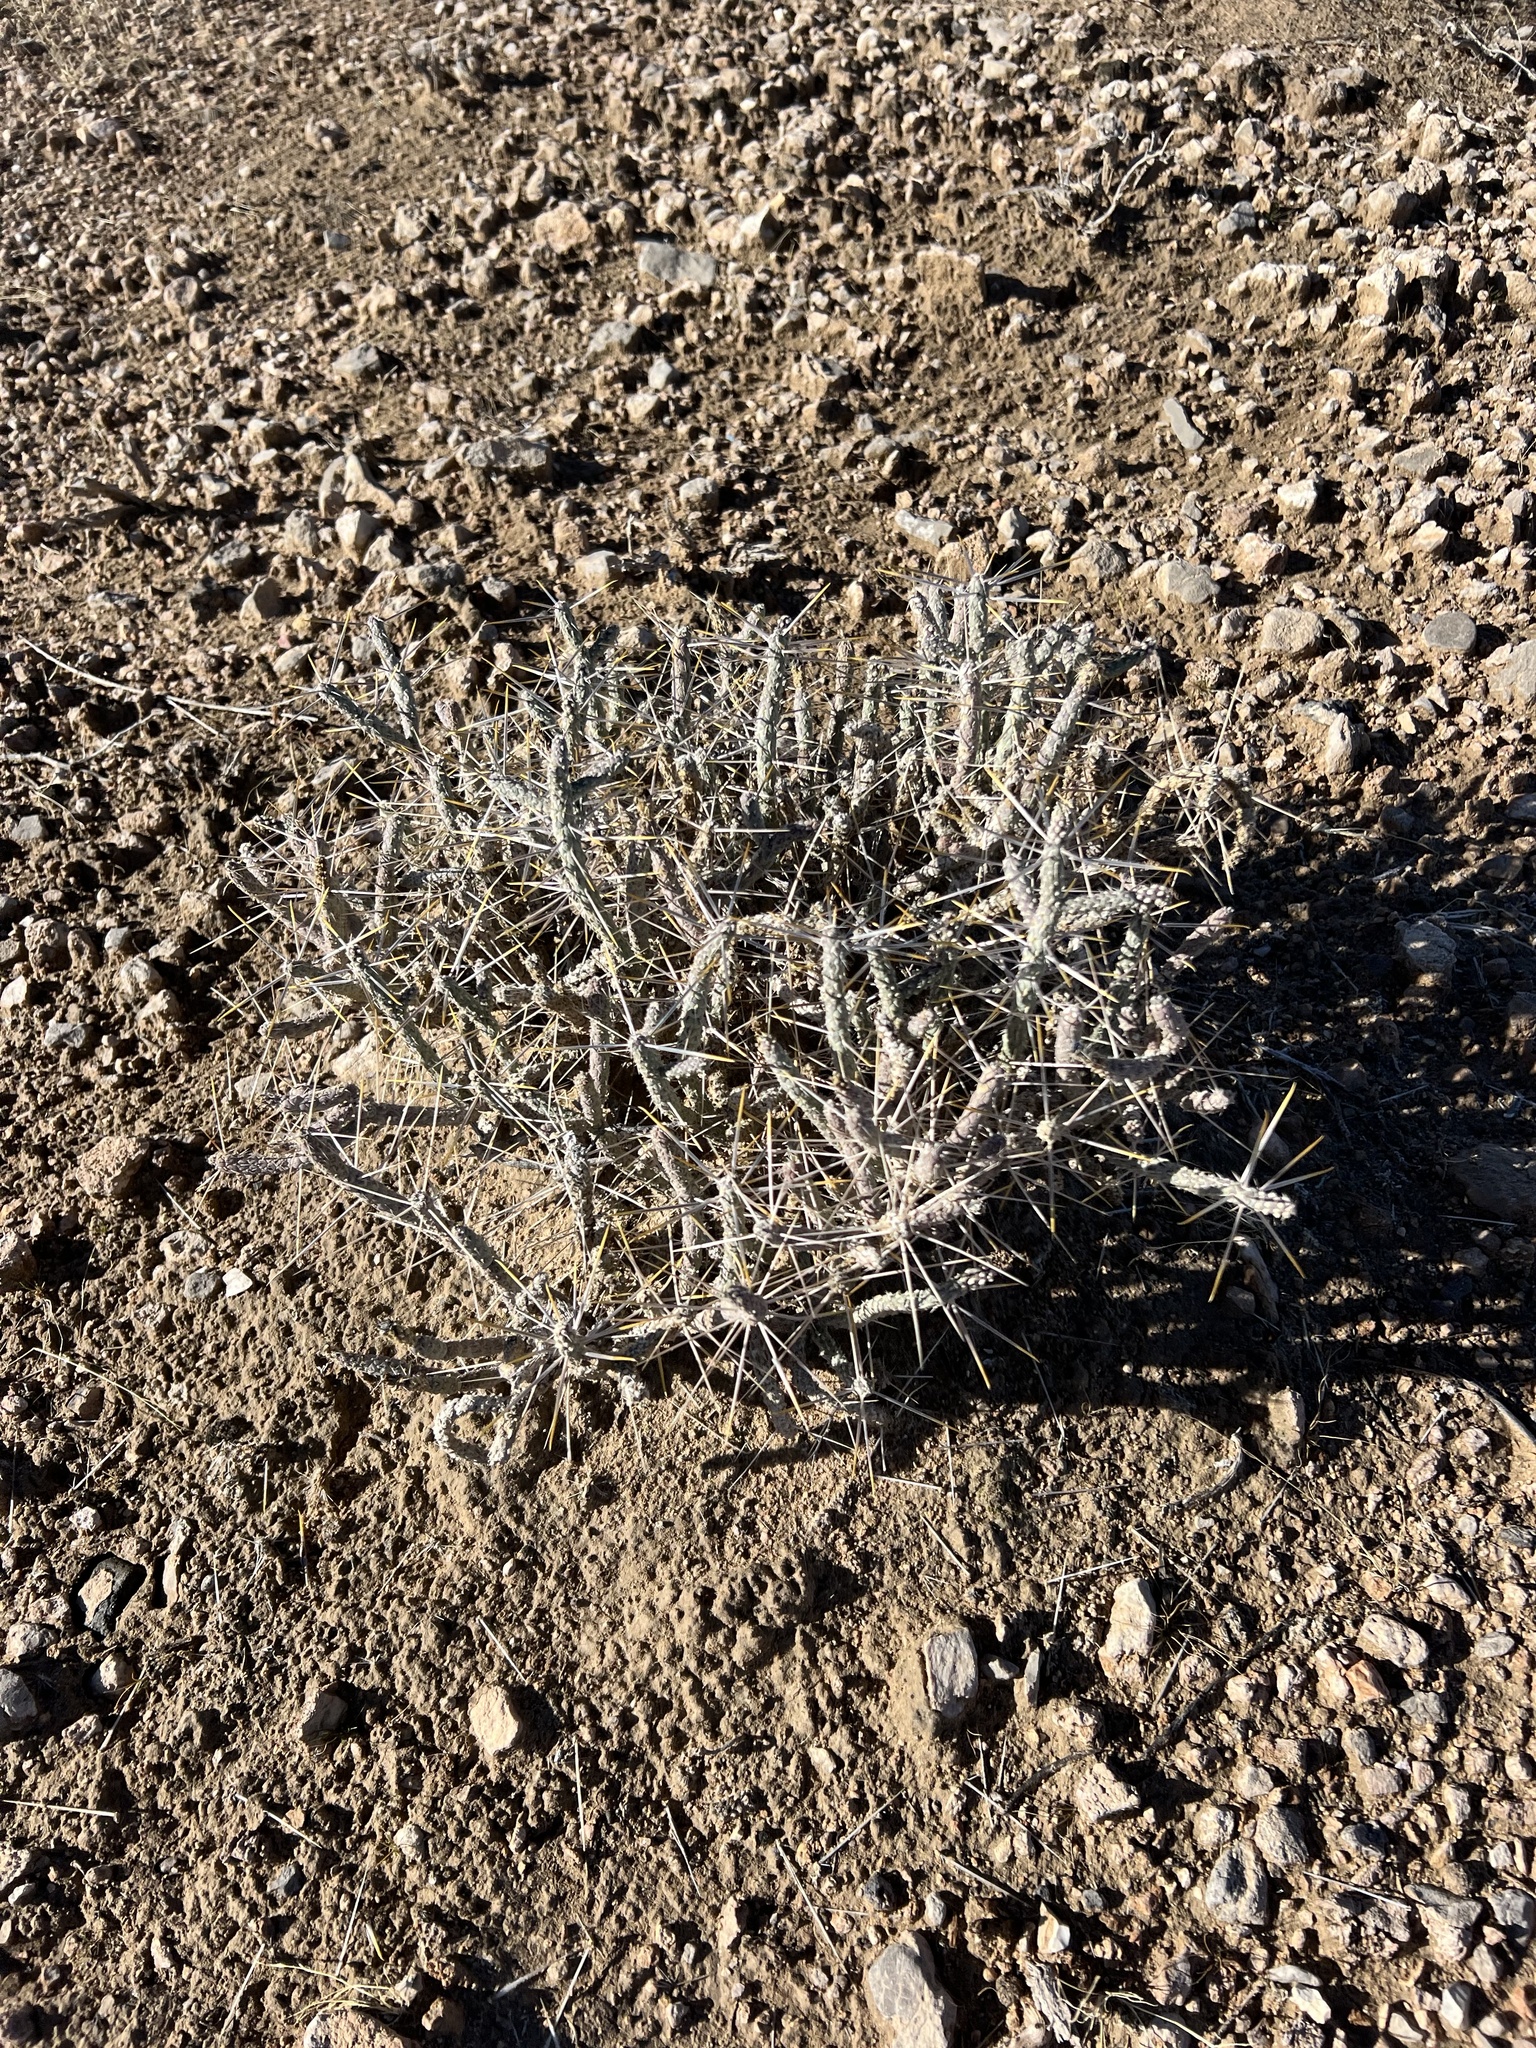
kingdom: Plantae
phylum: Tracheophyta
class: Magnoliopsida
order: Caryophyllales
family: Cactaceae
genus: Cylindropuntia
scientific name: Cylindropuntia ramosissima
